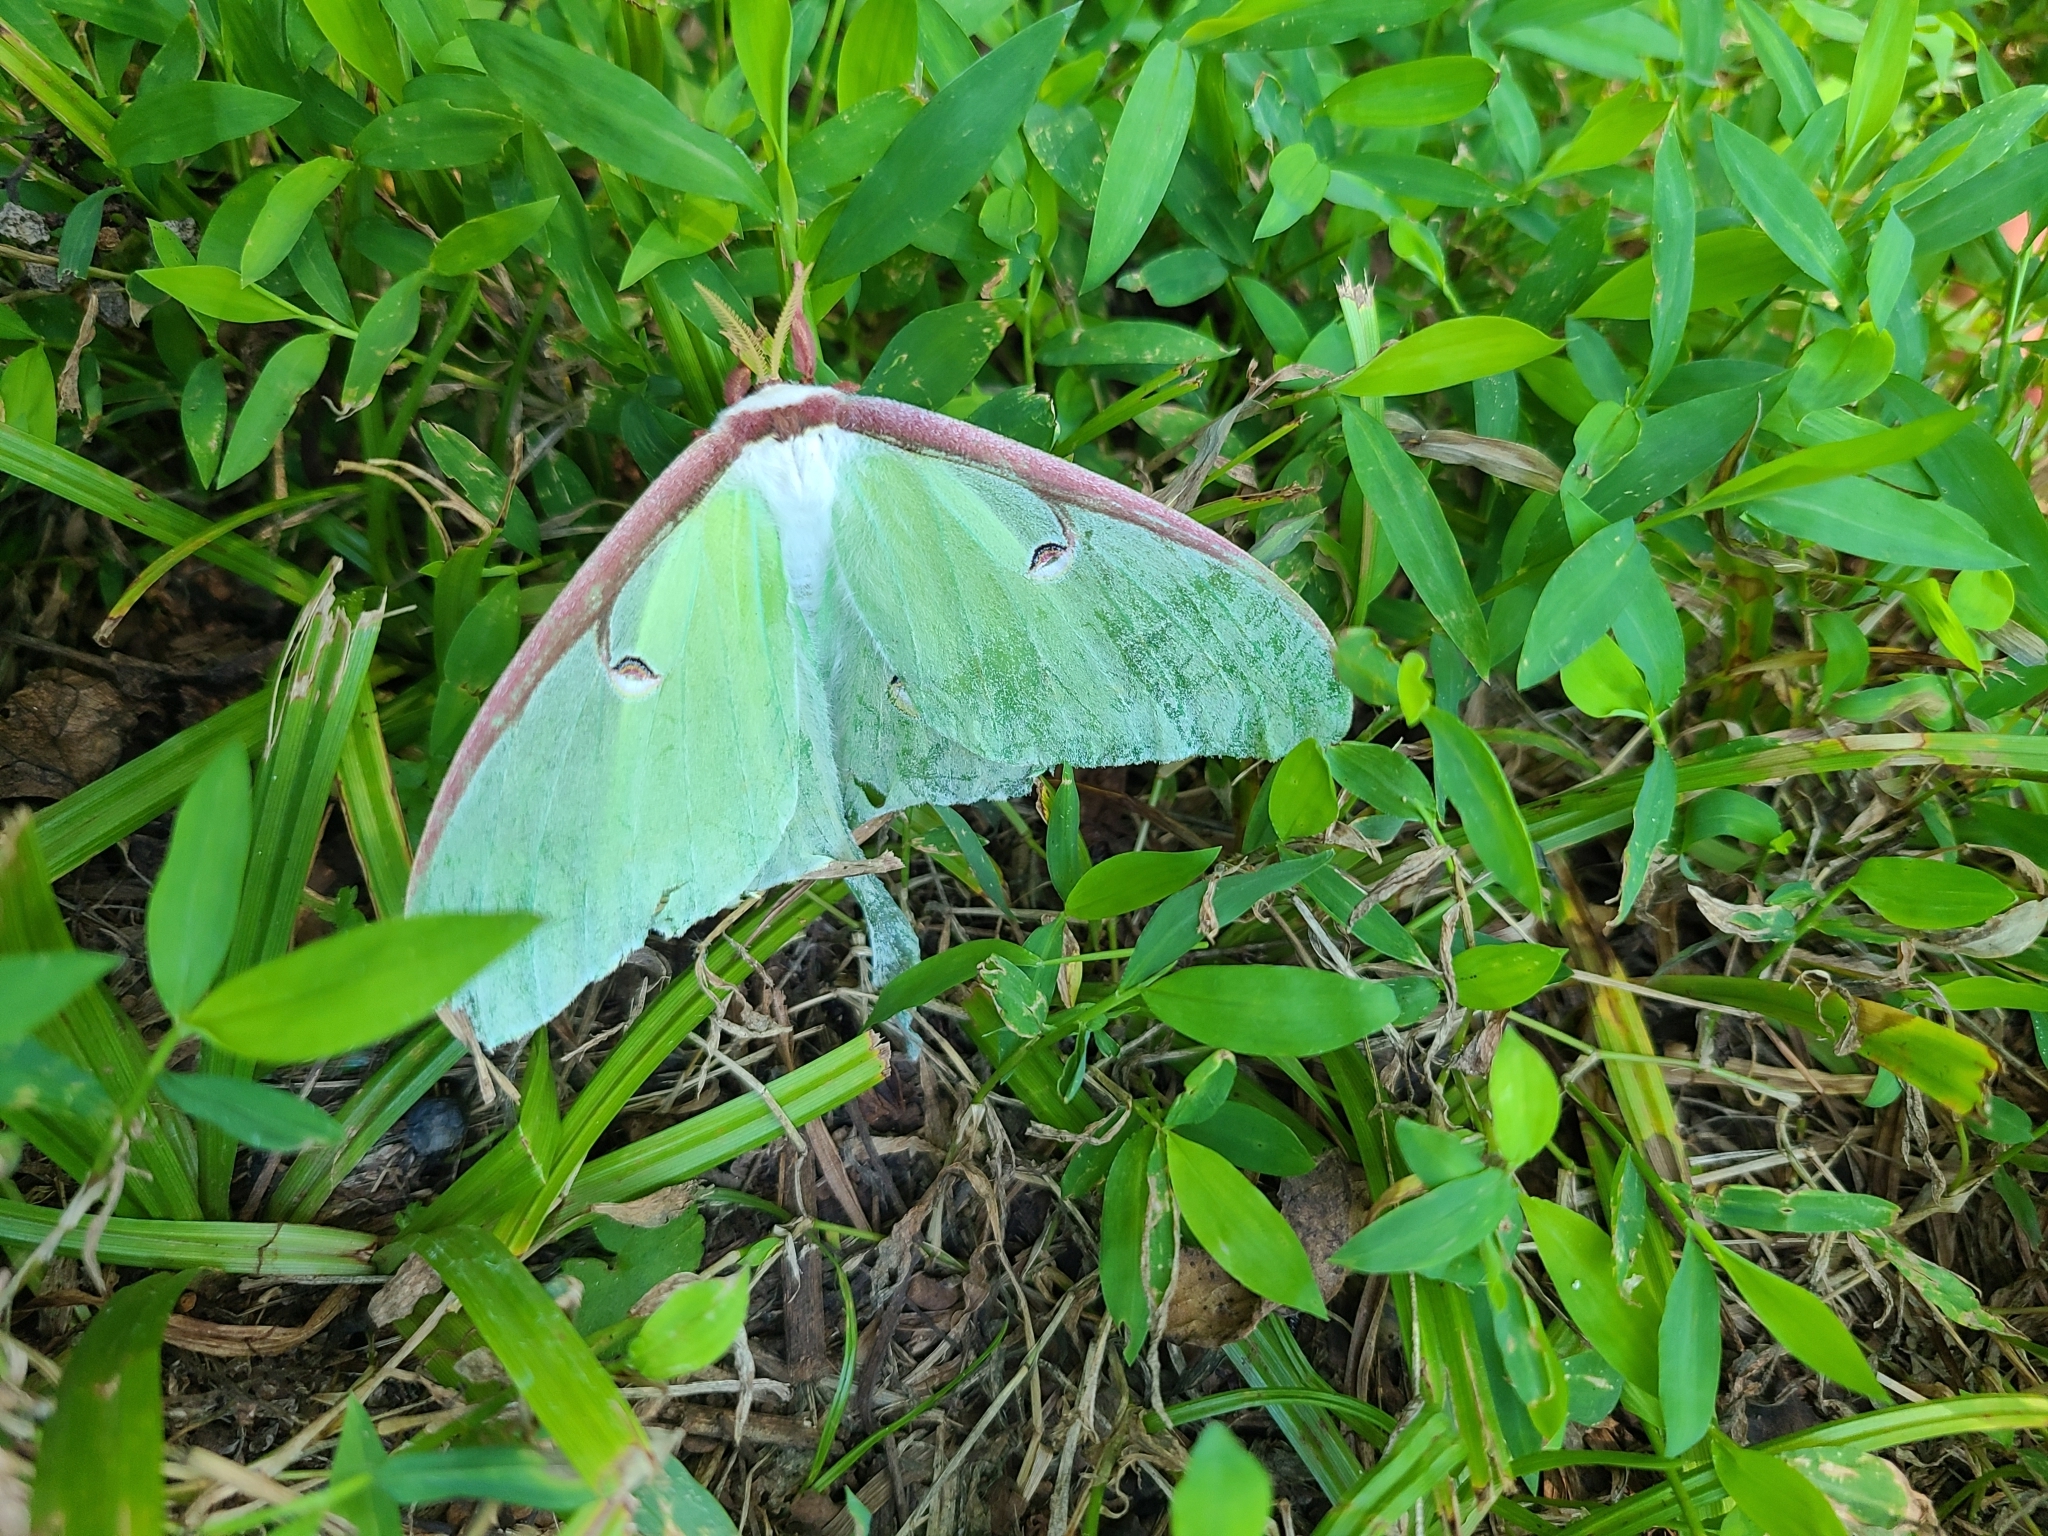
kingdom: Animalia
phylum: Arthropoda
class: Insecta
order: Lepidoptera
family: Saturniidae
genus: Actias
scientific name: Actias luna
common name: Luna moth
